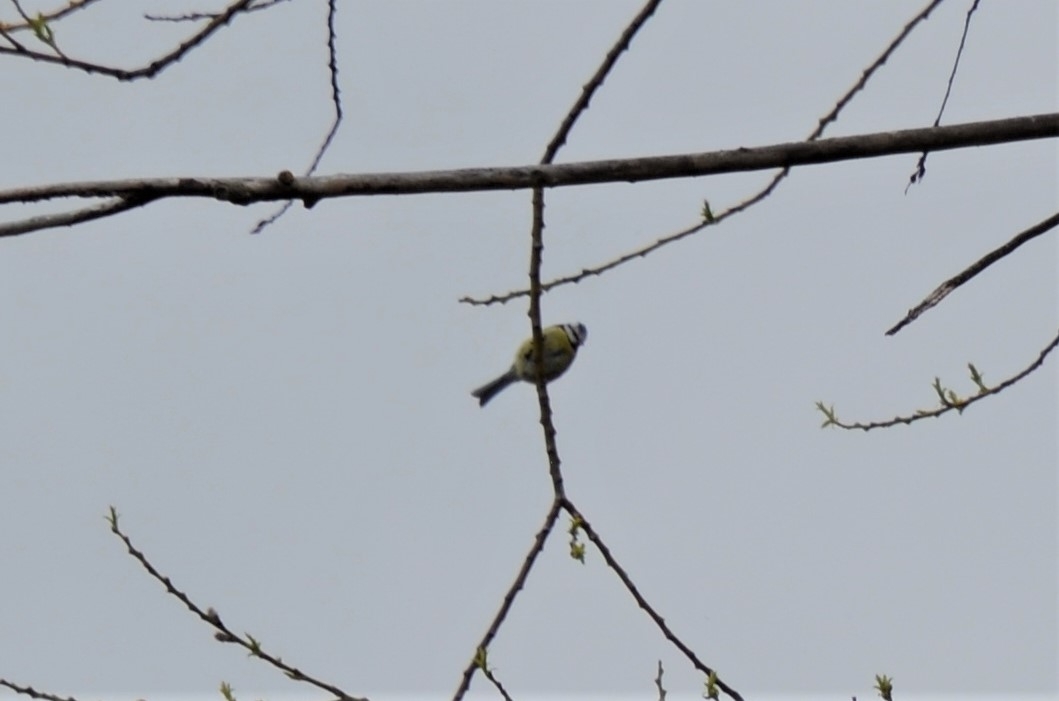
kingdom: Animalia
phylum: Chordata
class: Aves
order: Passeriformes
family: Paridae
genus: Cyanistes
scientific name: Cyanistes caeruleus
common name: Eurasian blue tit
